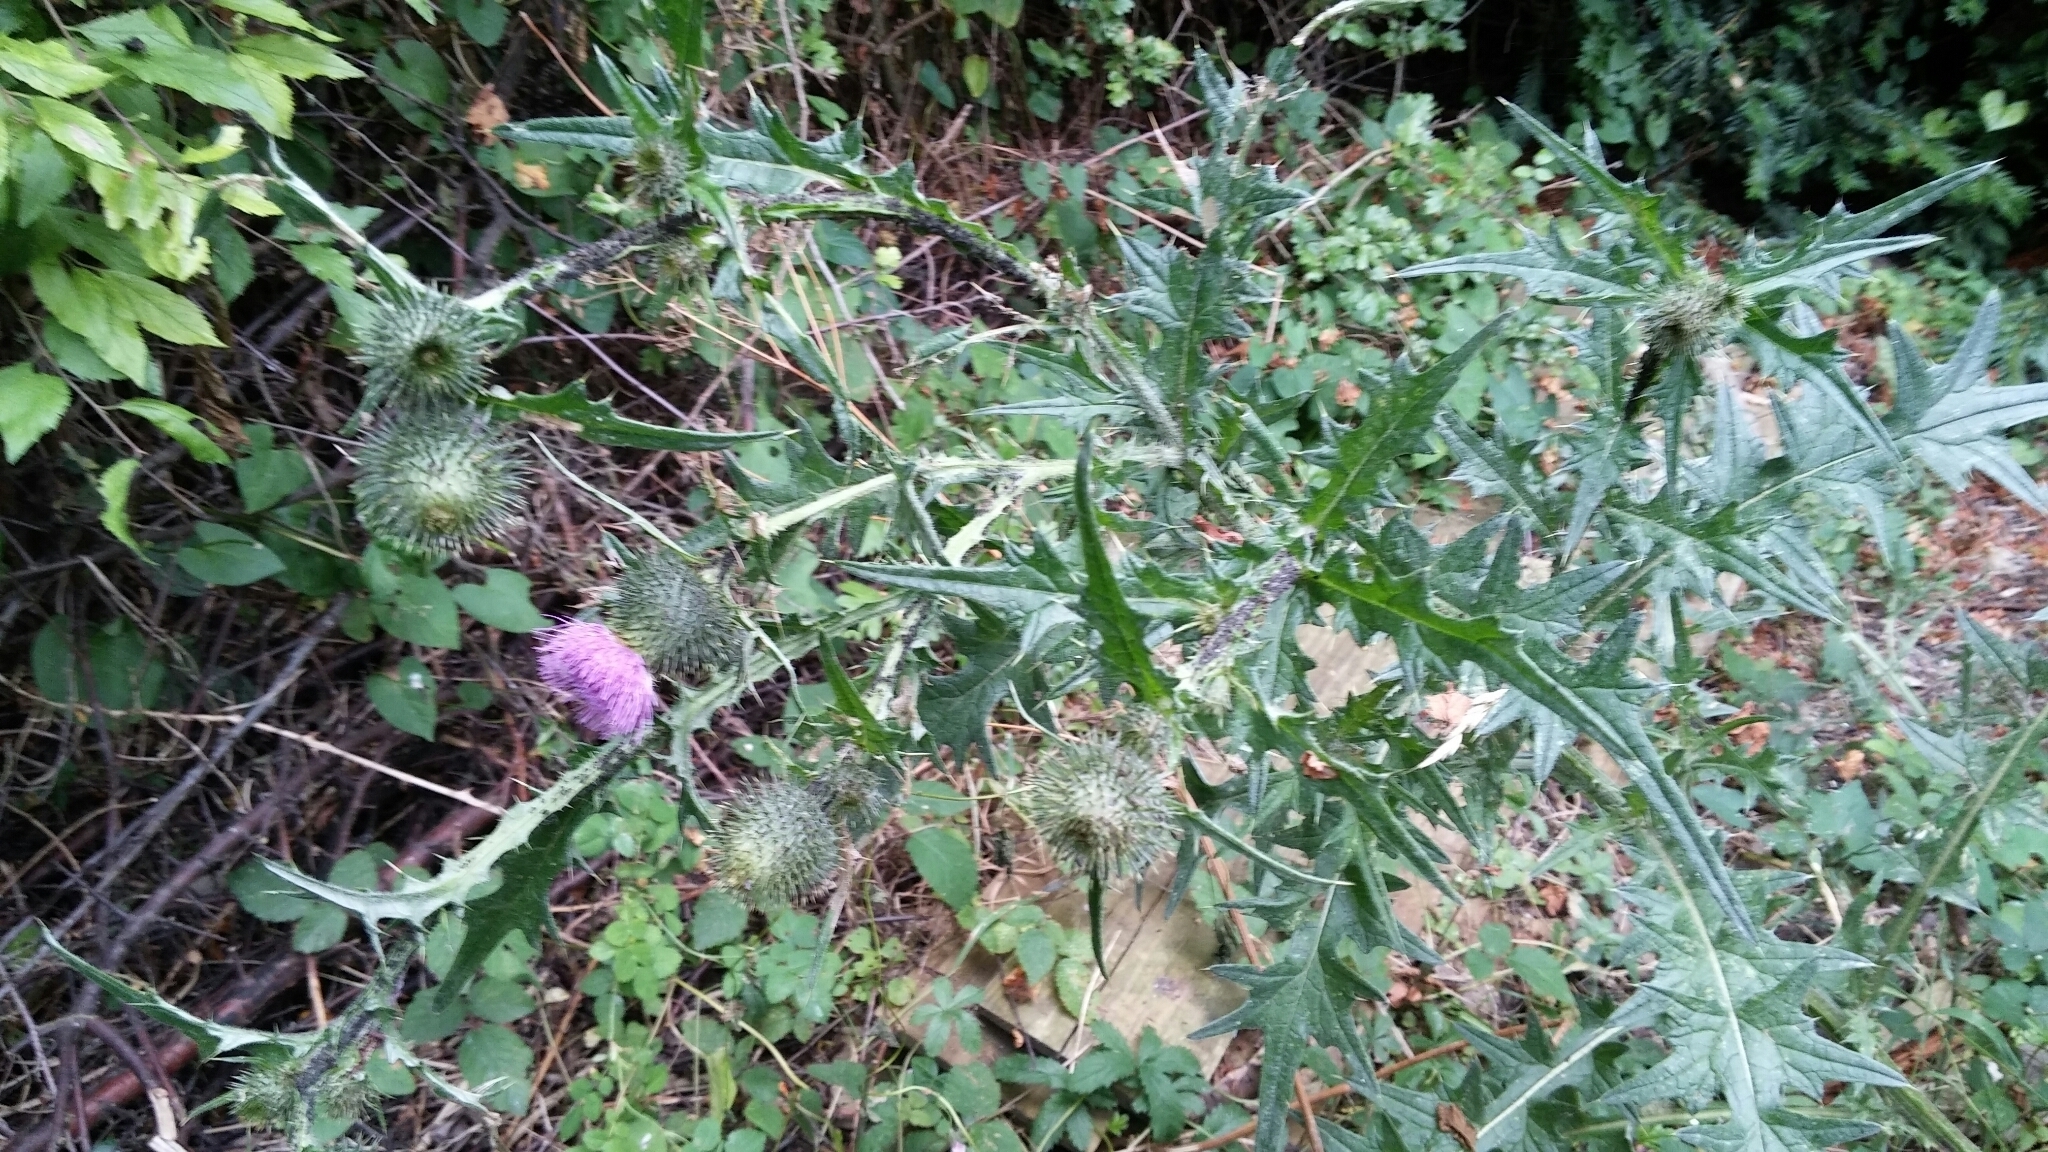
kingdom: Plantae
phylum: Tracheophyta
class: Magnoliopsida
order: Asterales
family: Asteraceae
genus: Cirsium
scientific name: Cirsium vulgare
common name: Bull thistle
